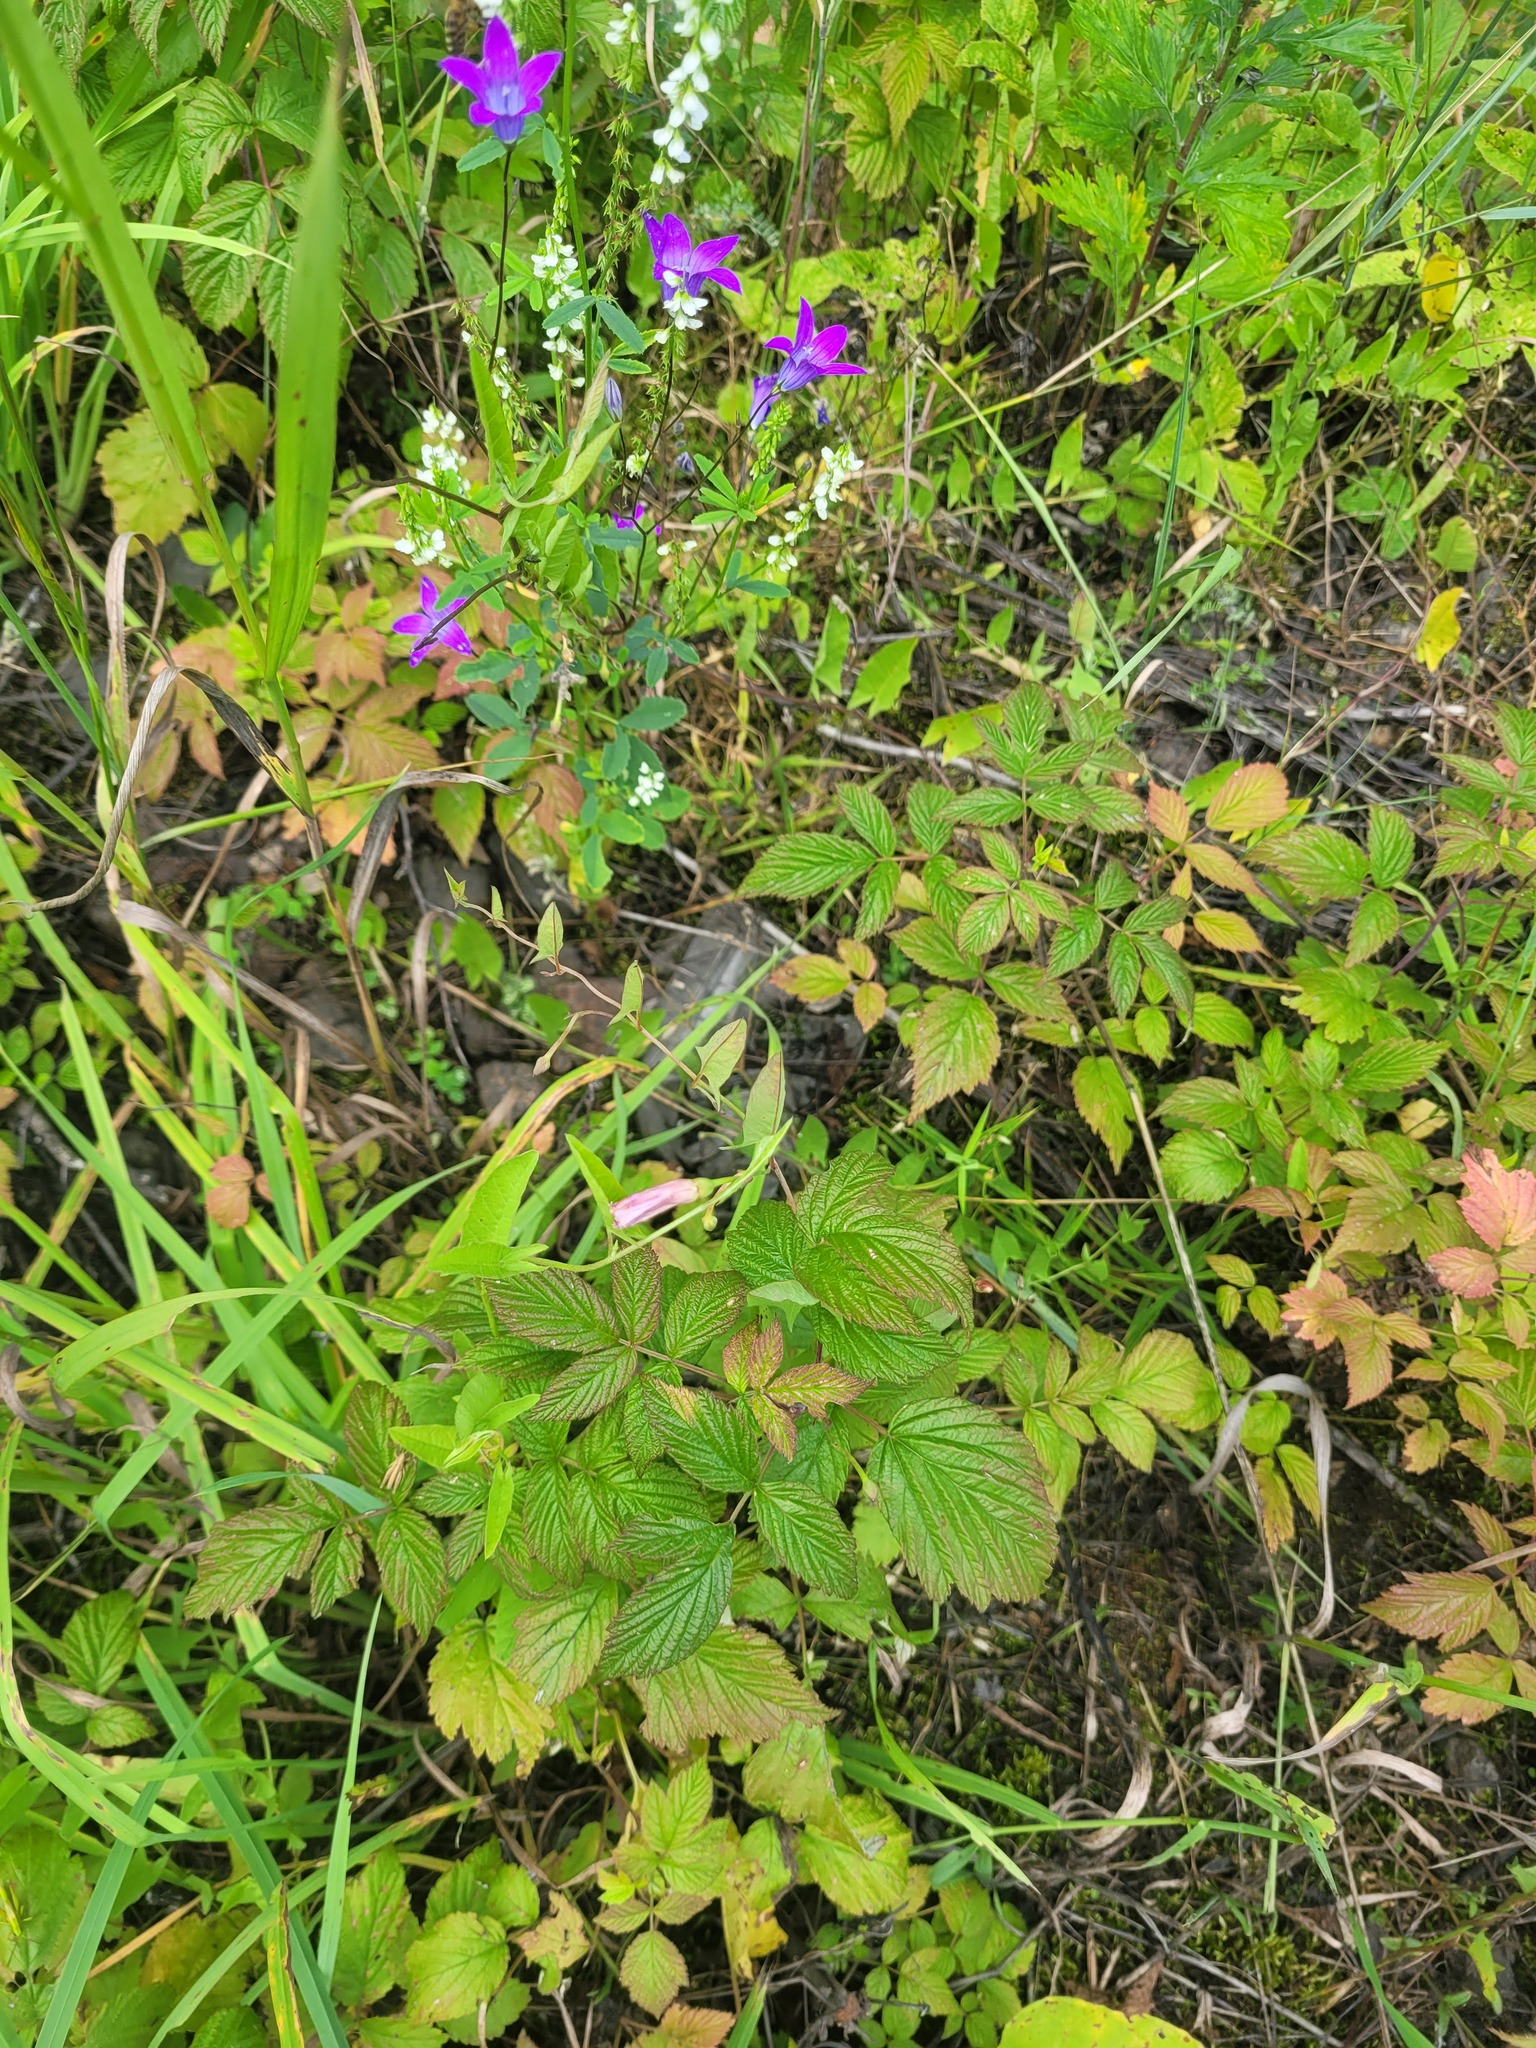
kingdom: Plantae
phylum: Tracheophyta
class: Magnoliopsida
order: Solanales
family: Convolvulaceae
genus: Convolvulus
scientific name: Convolvulus arvensis
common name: Field bindweed
